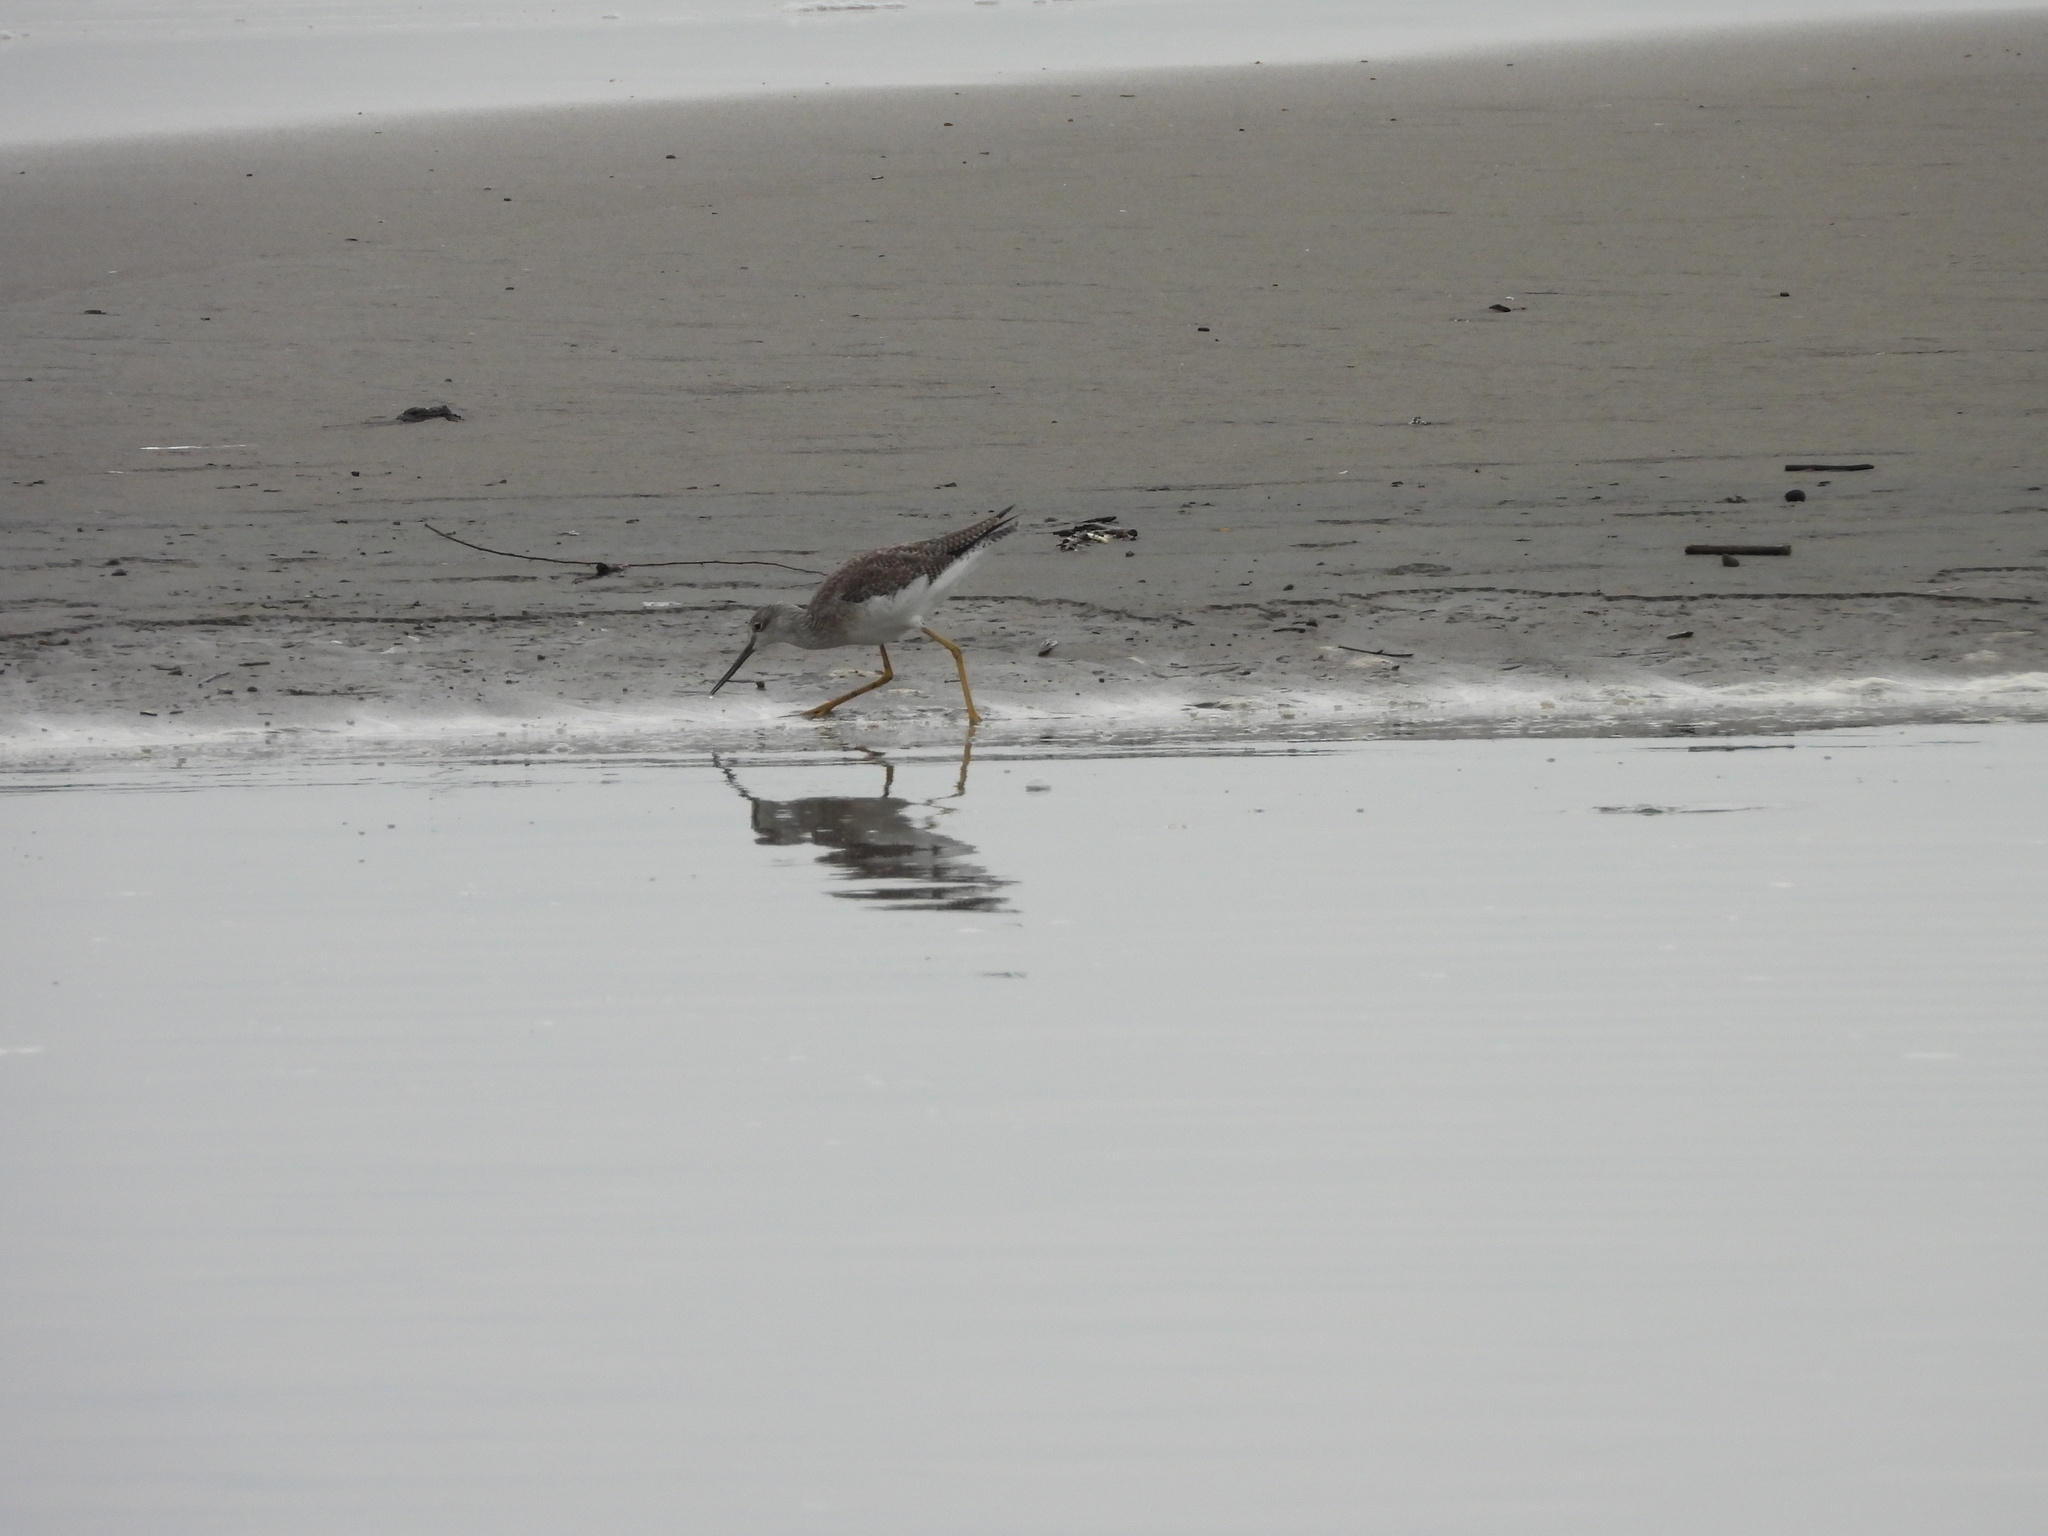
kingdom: Animalia
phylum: Chordata
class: Aves
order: Charadriiformes
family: Scolopacidae
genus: Tringa
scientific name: Tringa melanoleuca
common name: Greater yellowlegs
